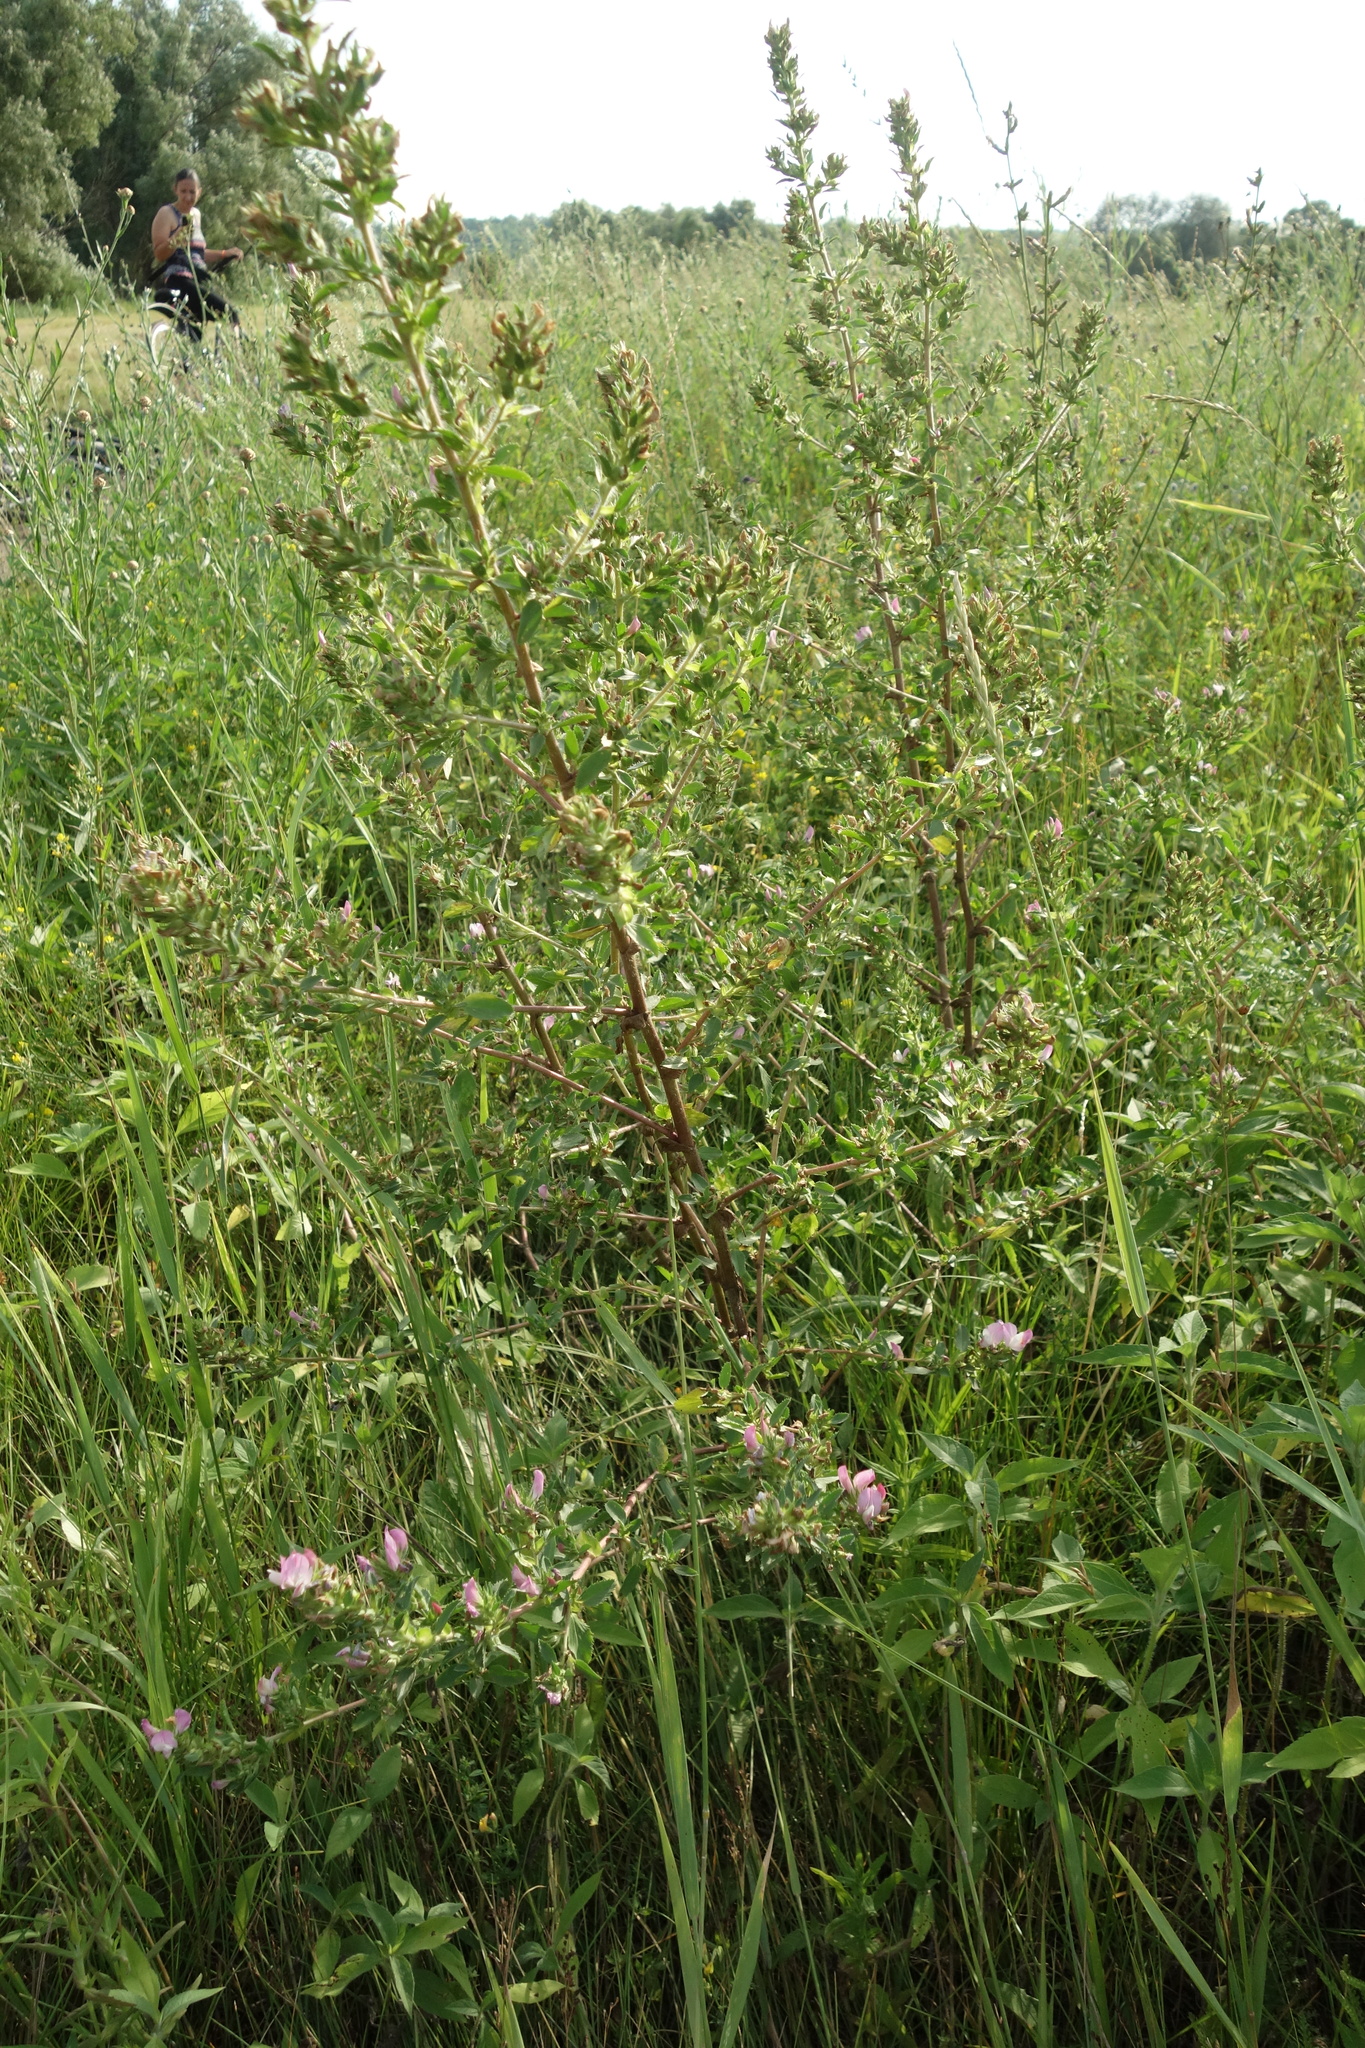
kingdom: Plantae
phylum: Tracheophyta
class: Magnoliopsida
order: Fabales
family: Fabaceae
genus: Ononis
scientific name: Ononis arvensis
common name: Field restharrow
